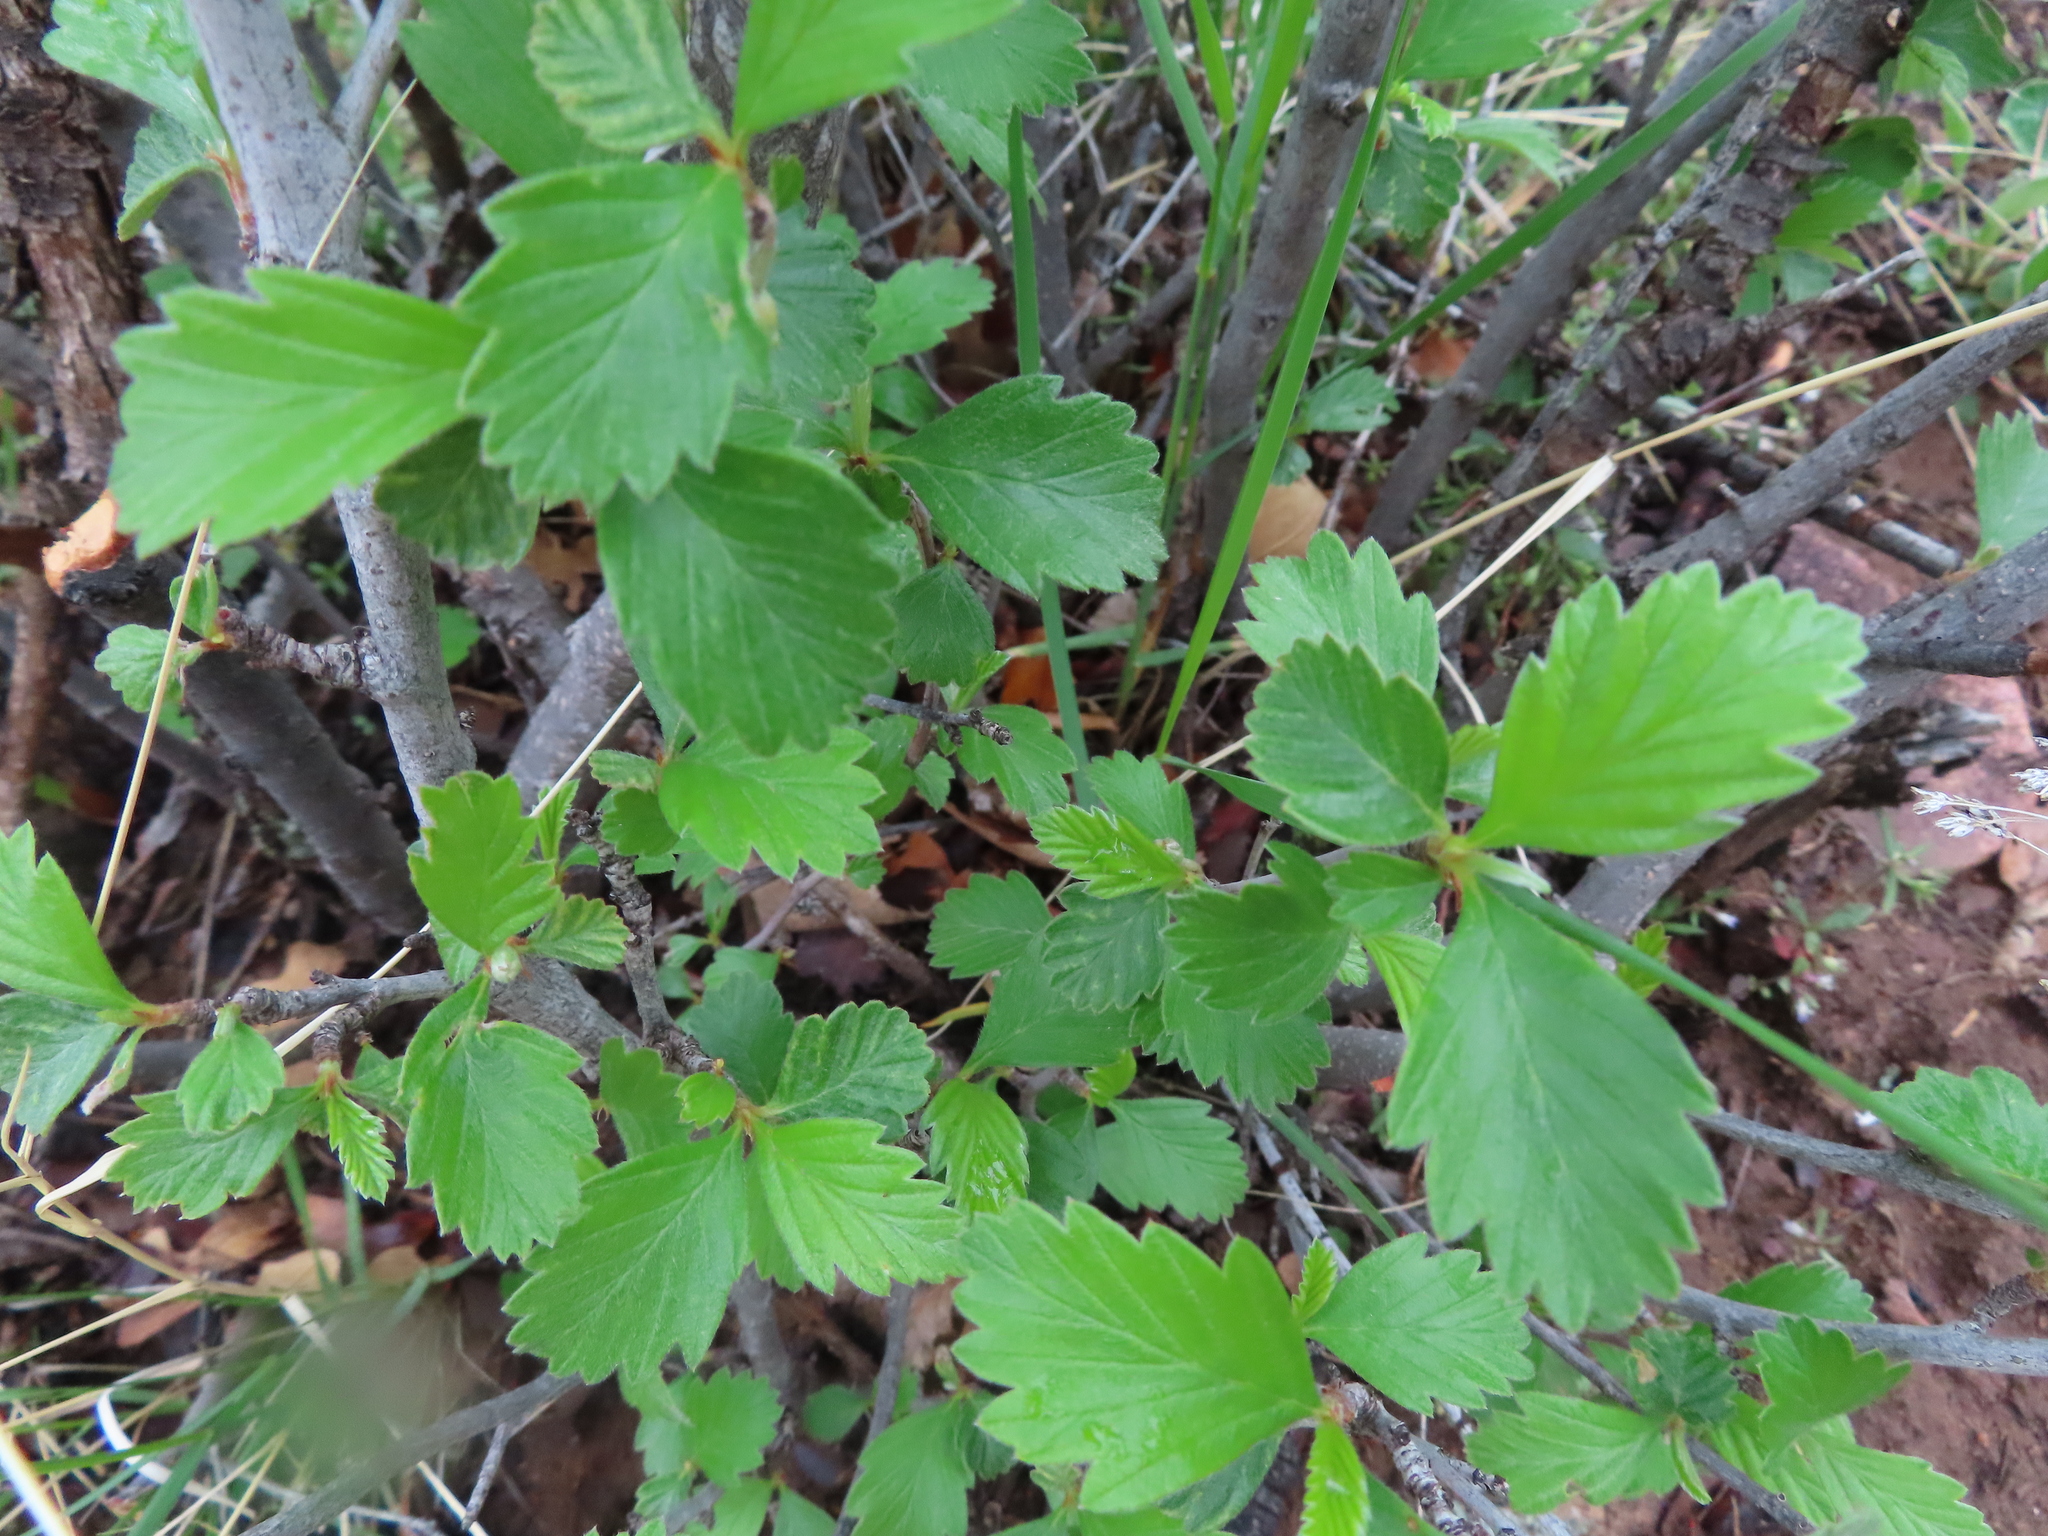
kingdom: Plantae
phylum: Tracheophyta
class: Magnoliopsida
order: Rosales
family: Rosaceae
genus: Cercocarpus
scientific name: Cercocarpus montanus
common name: Alder-leaf cercocarpus
